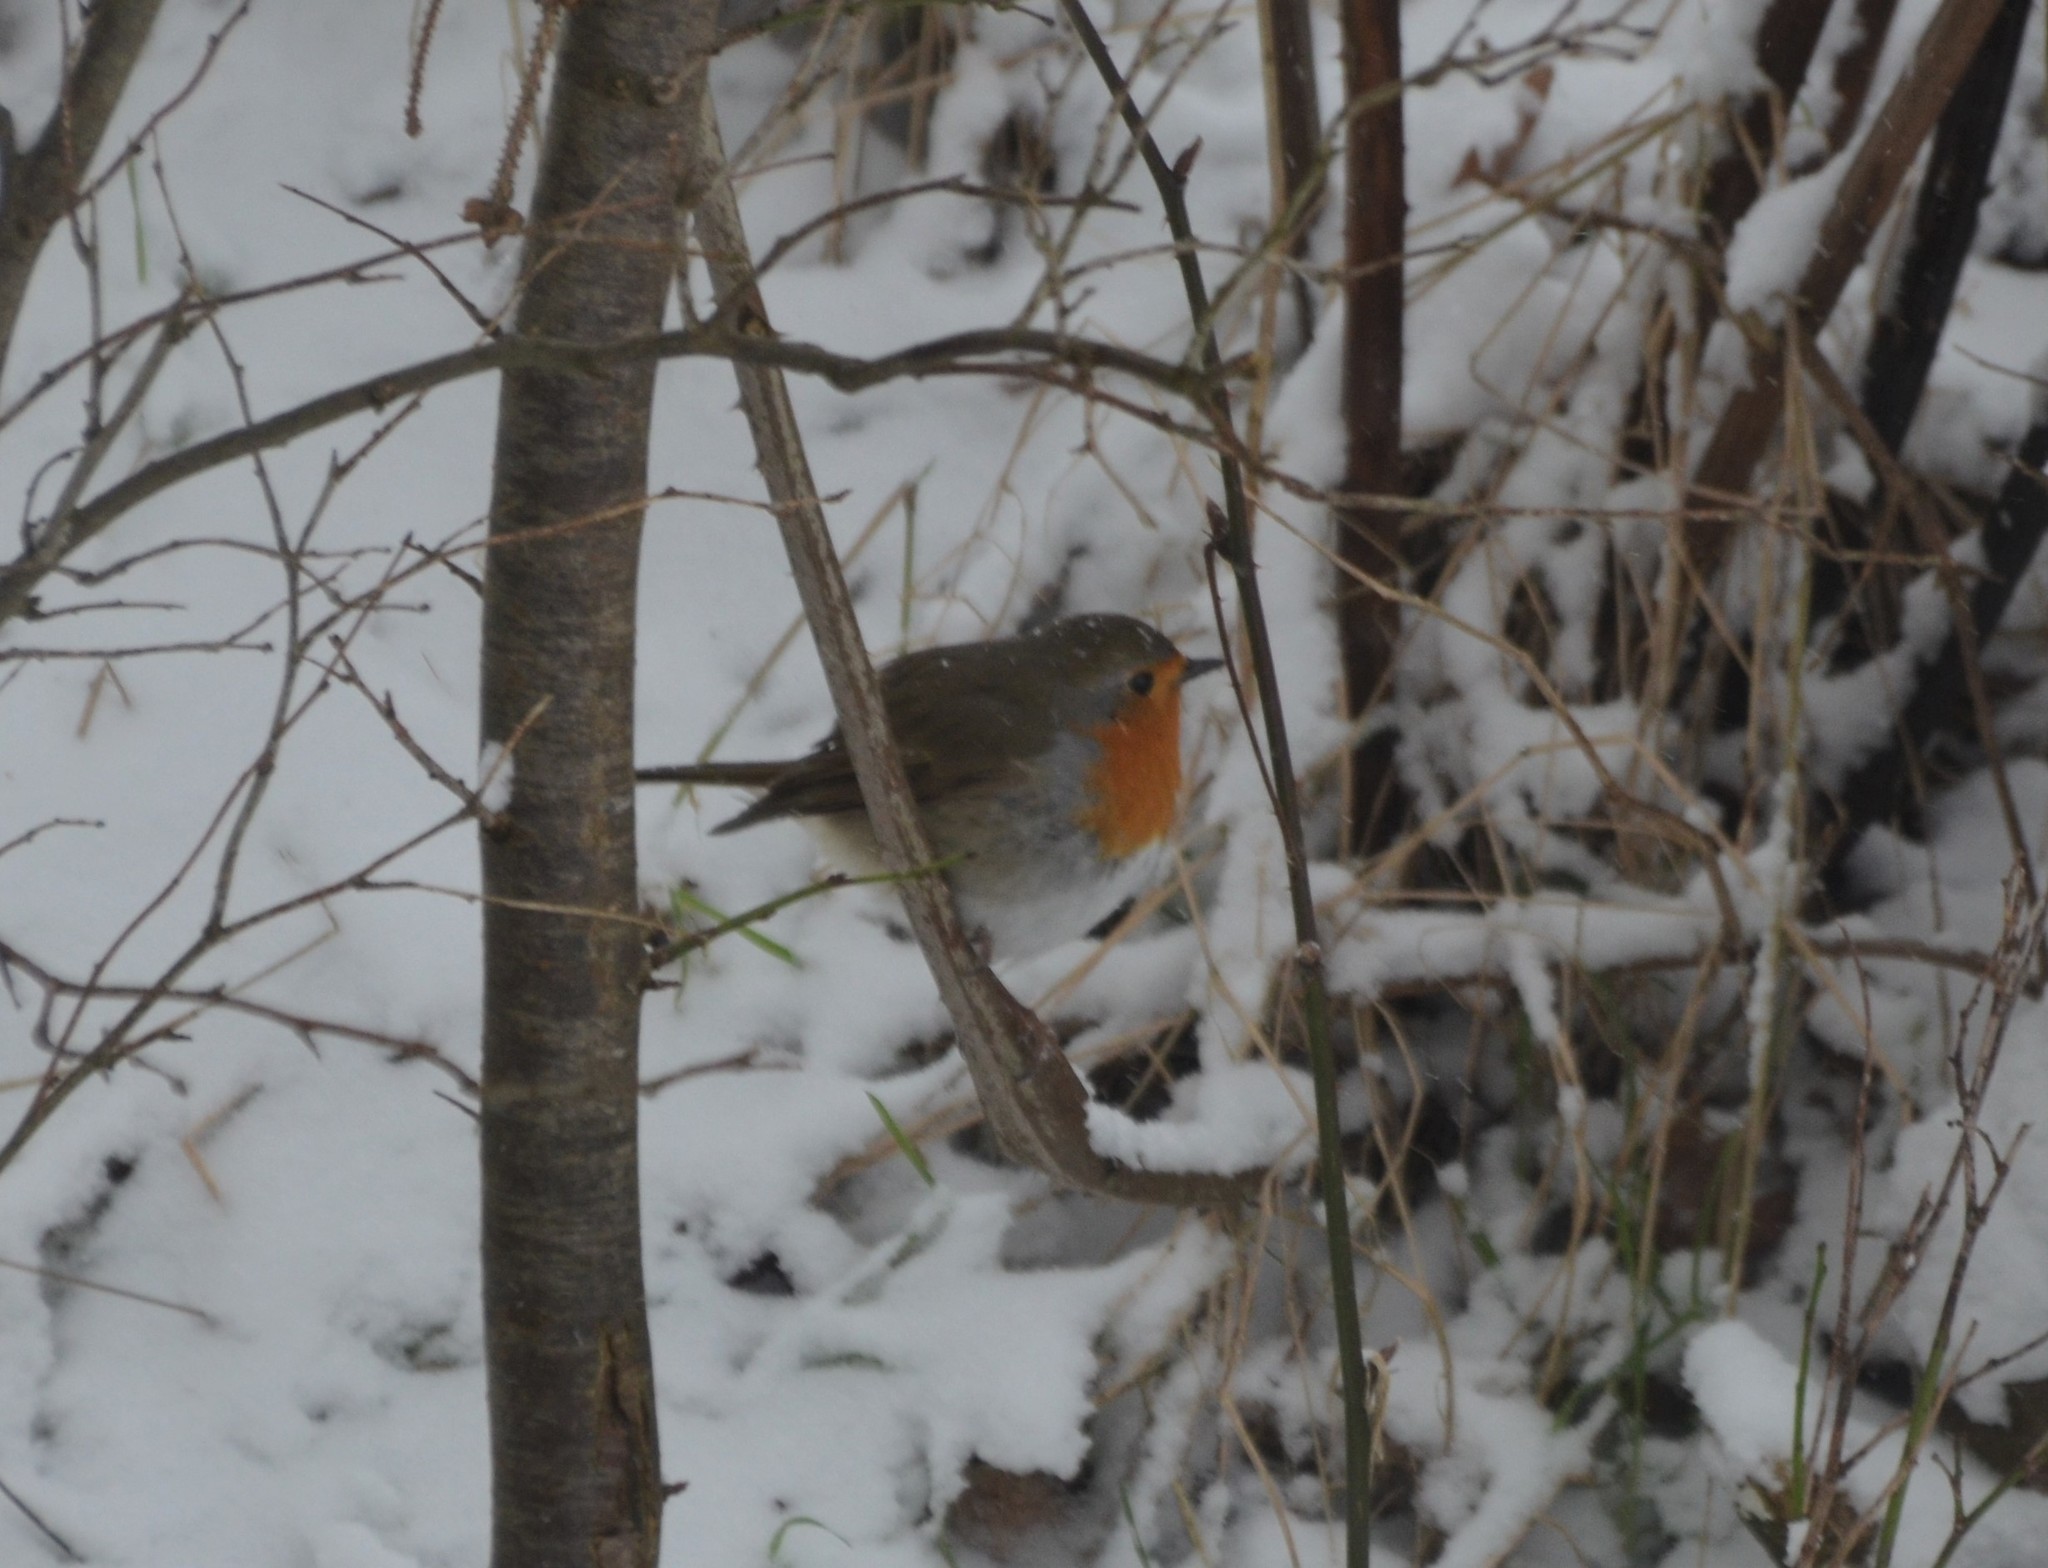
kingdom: Animalia
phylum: Chordata
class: Aves
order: Passeriformes
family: Muscicapidae
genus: Erithacus
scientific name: Erithacus rubecula
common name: European robin
